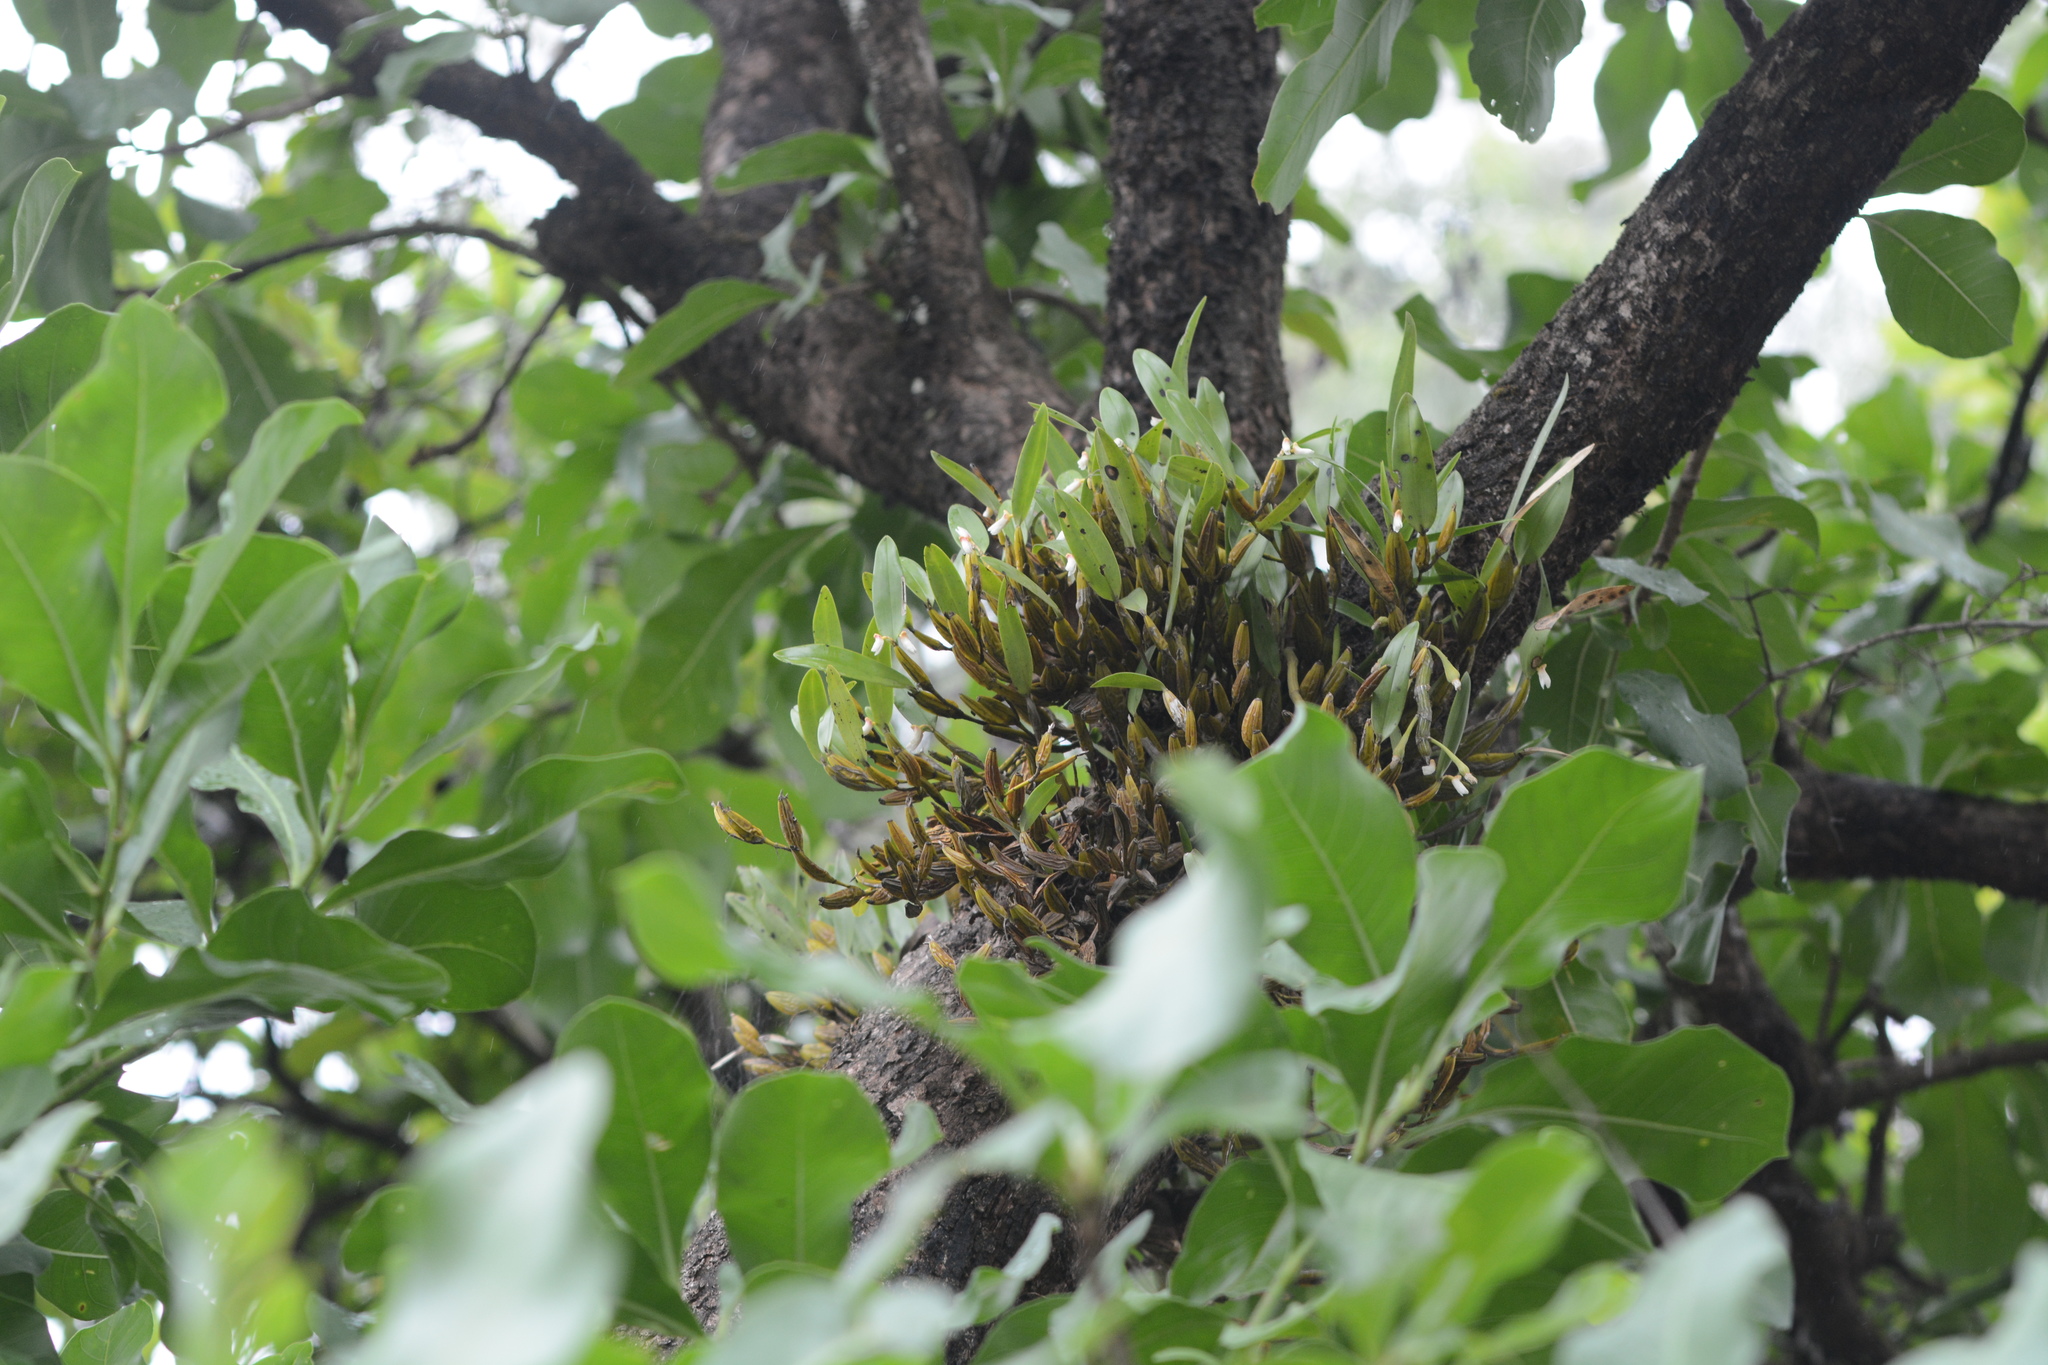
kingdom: Plantae
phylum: Tracheophyta
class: Liliopsida
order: Asparagales
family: Orchidaceae
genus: Dendrobium
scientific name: Dendrobium nodosum
